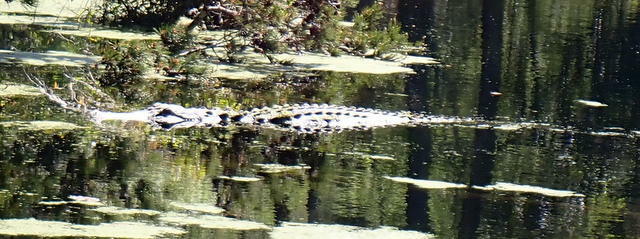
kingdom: Animalia
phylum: Chordata
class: Crocodylia
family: Alligatoridae
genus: Alligator
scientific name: Alligator mississippiensis
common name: American alligator
